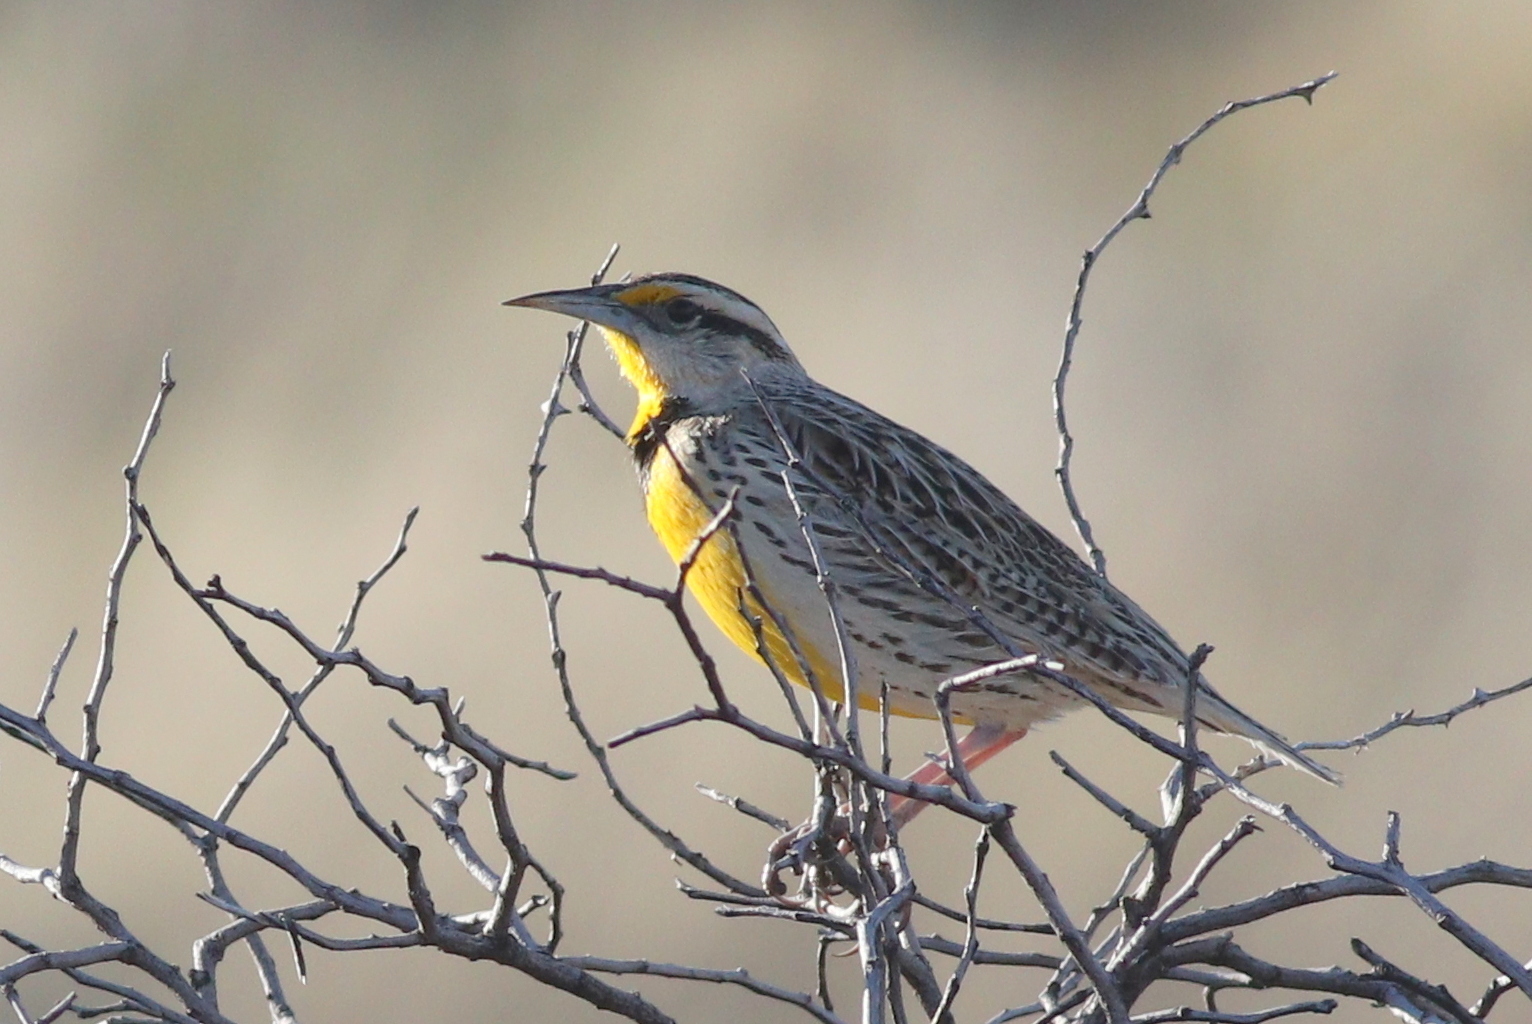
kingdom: Animalia
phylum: Chordata
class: Aves
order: Passeriformes
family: Icteridae
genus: Sturnella
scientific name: Sturnella lilianae
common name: Lilian's meadowlark
